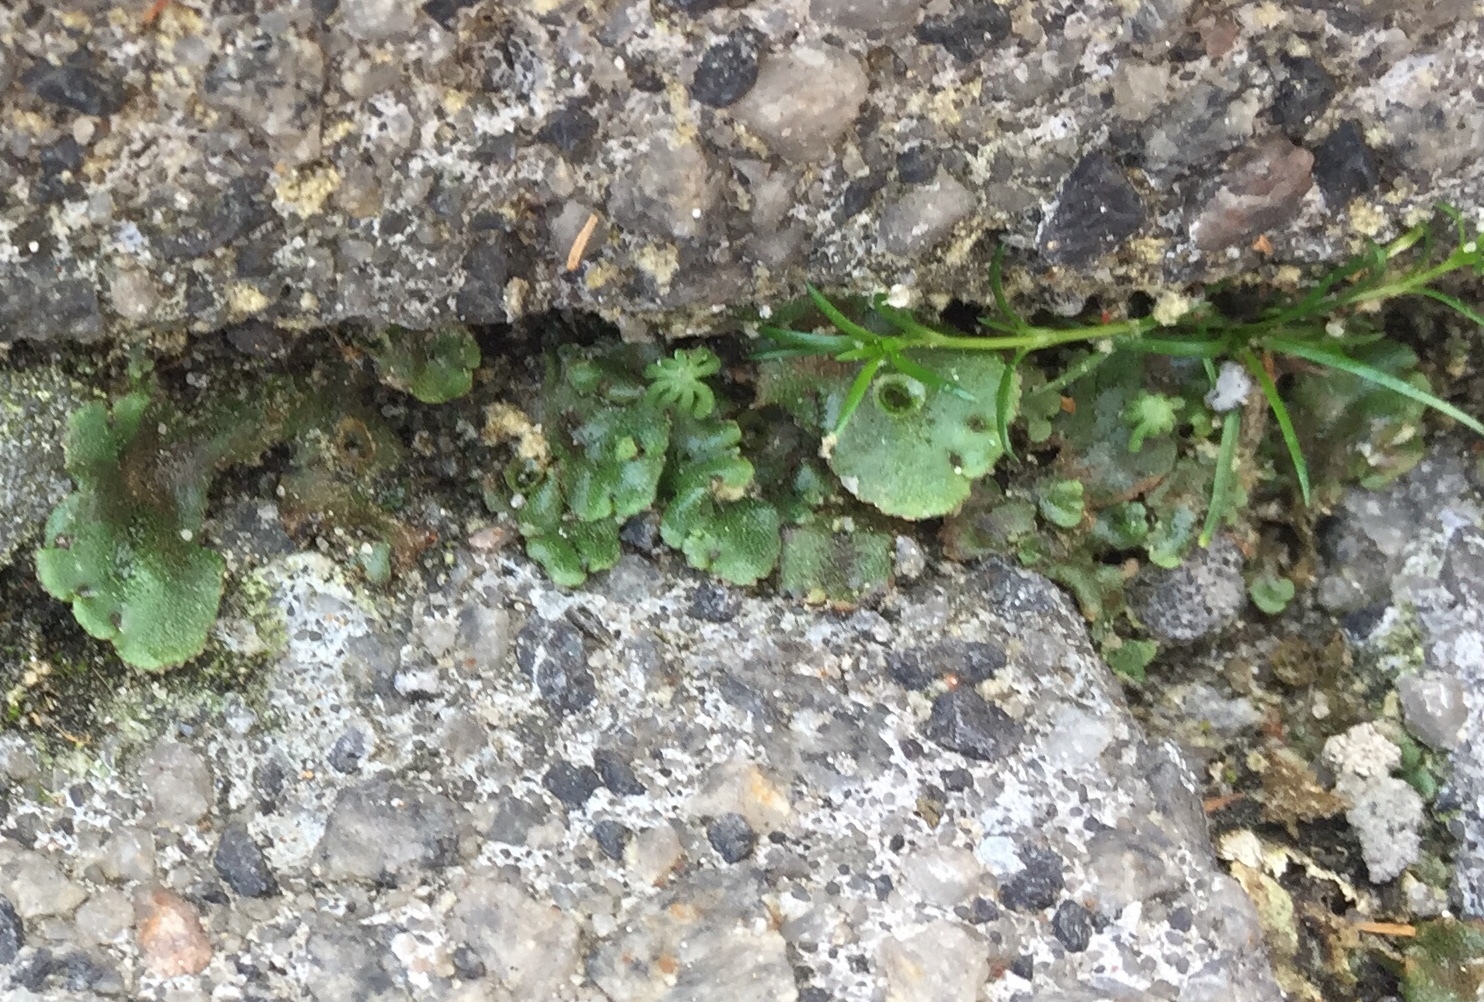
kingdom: Plantae
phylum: Marchantiophyta
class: Marchantiopsida
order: Marchantiales
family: Marchantiaceae
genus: Marchantia
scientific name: Marchantia polymorpha
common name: Common liverwort
